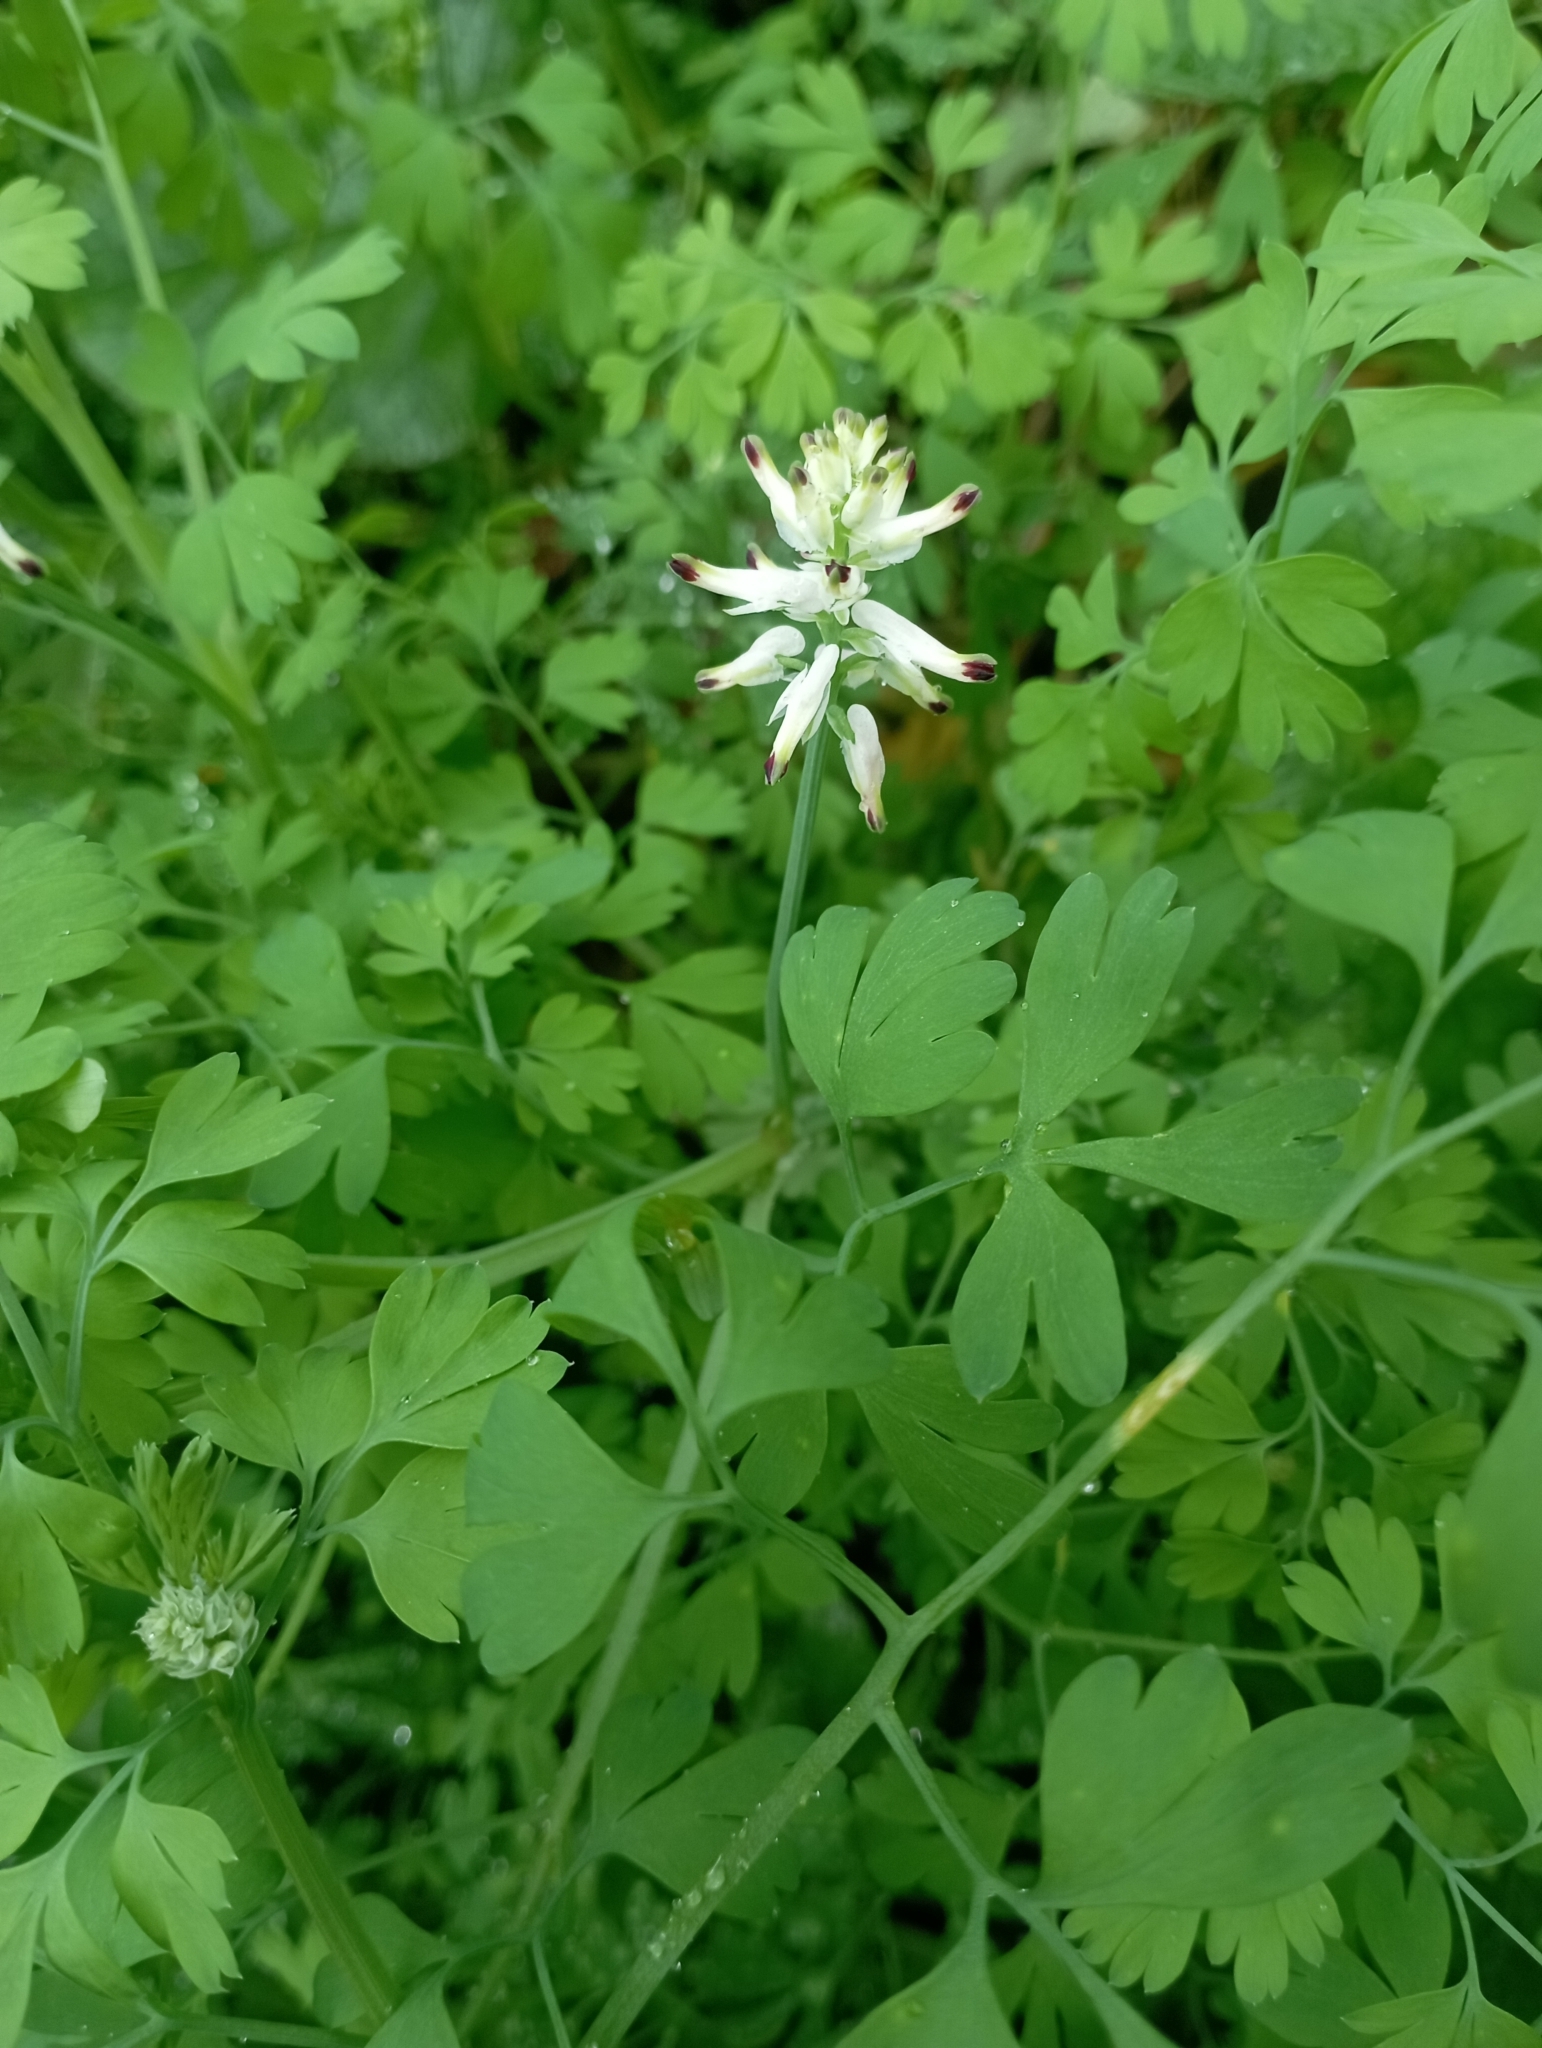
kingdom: Plantae
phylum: Tracheophyta
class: Magnoliopsida
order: Ranunculales
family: Papaveraceae
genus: Fumaria
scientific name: Fumaria capreolata
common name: White ramping-fumitory
